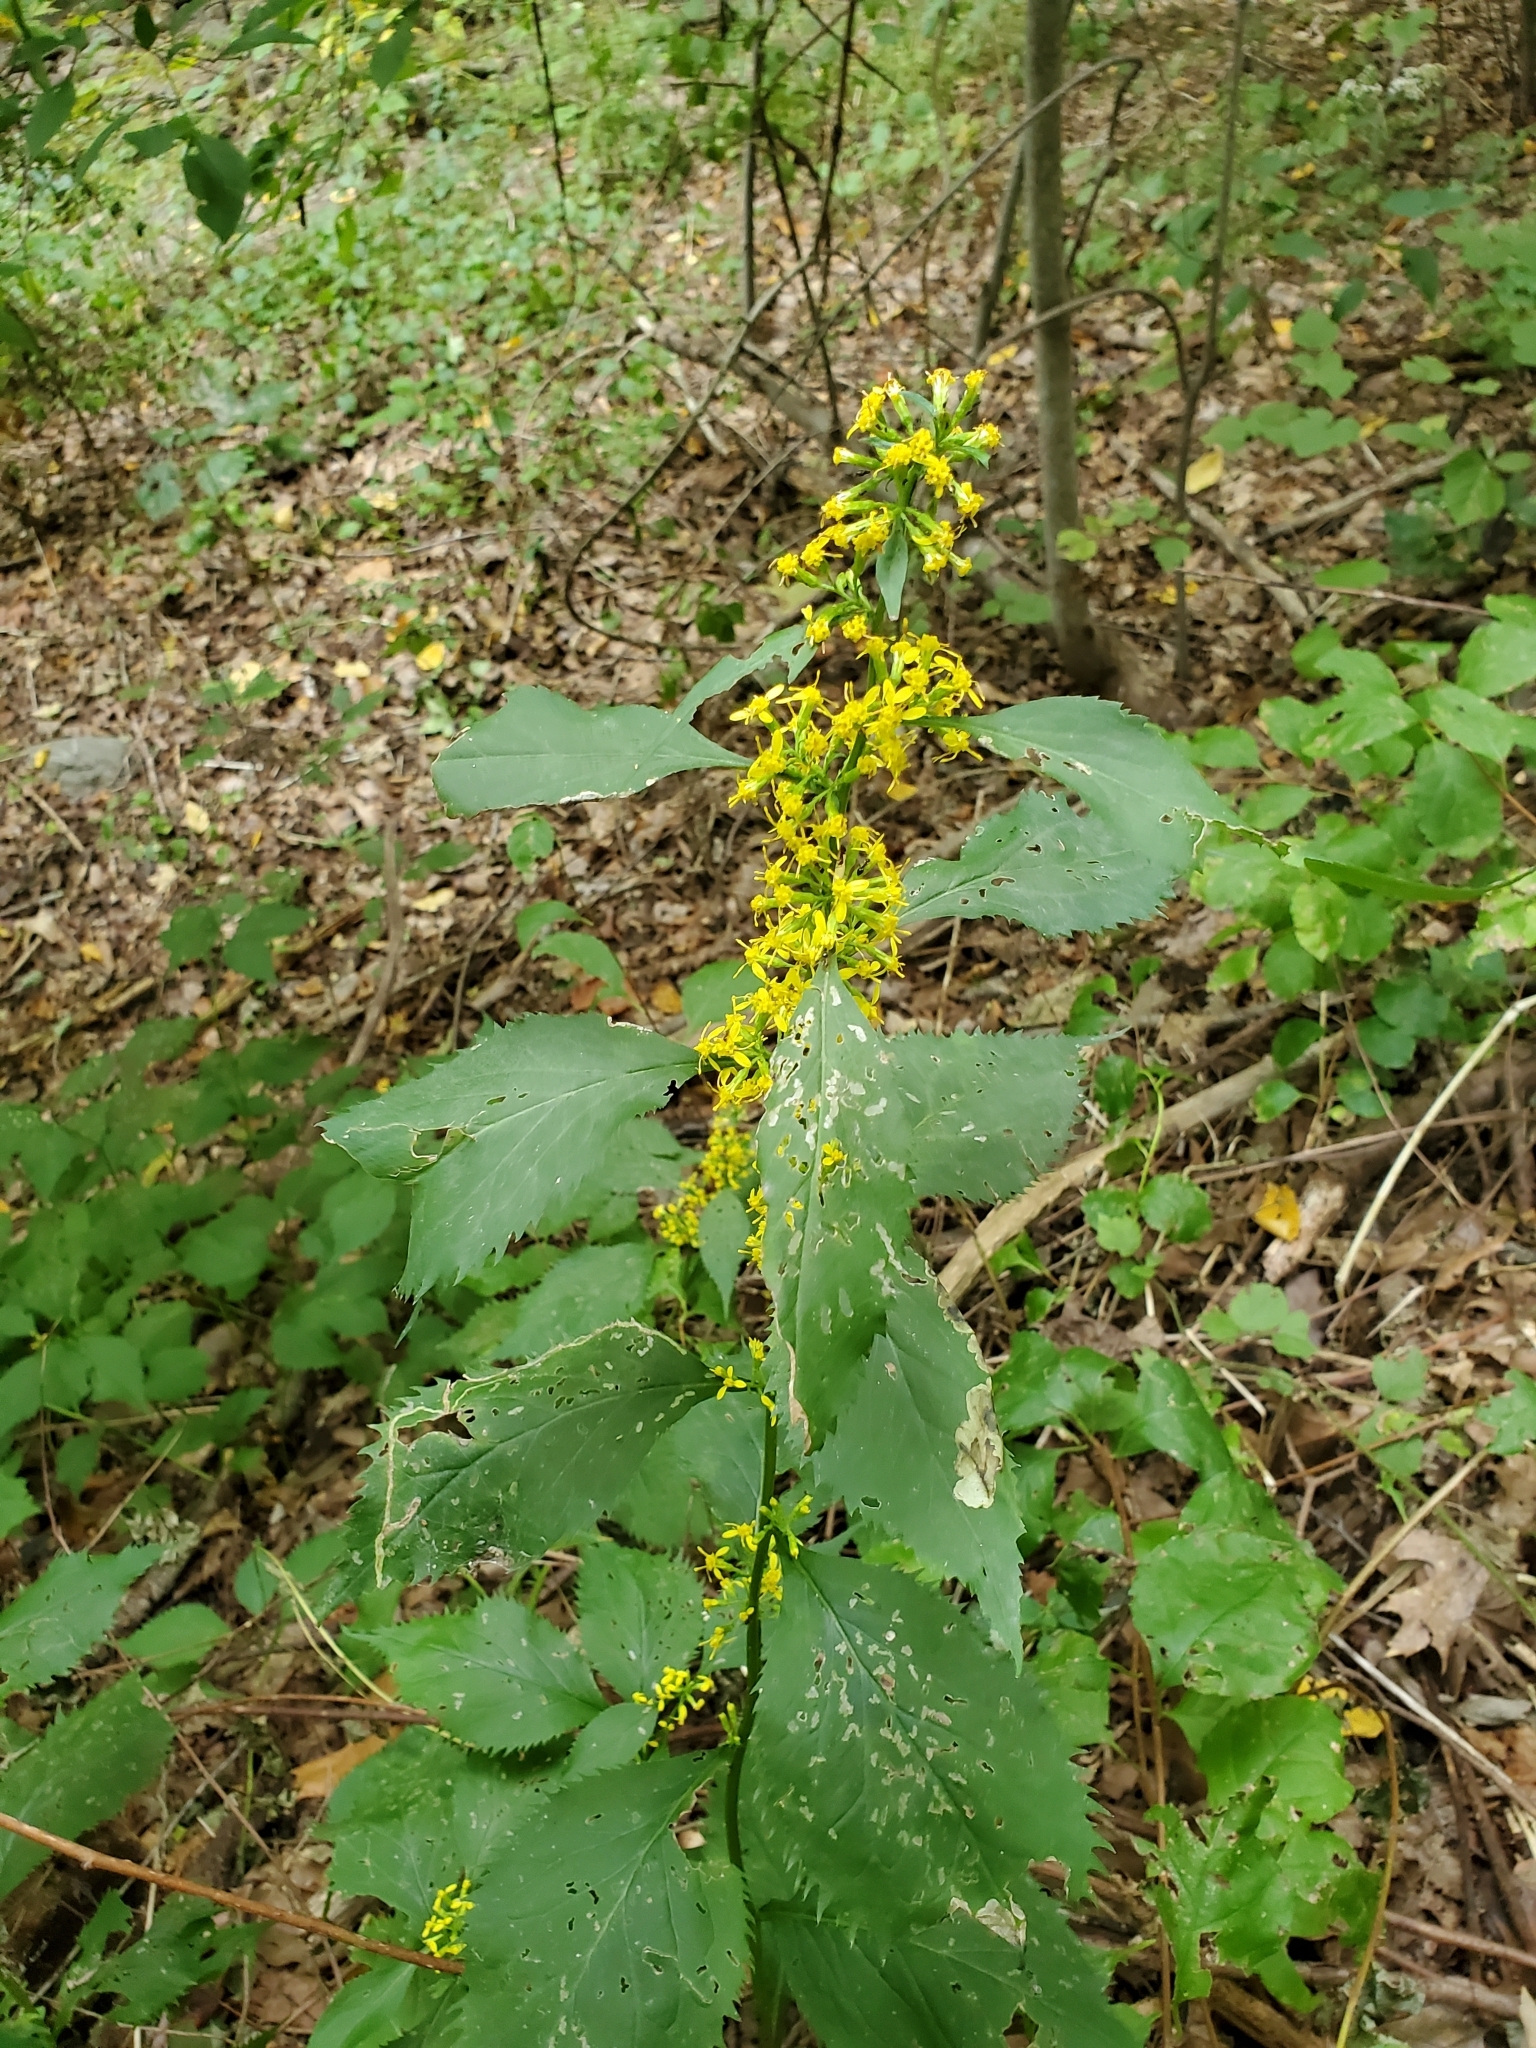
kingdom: Plantae
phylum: Tracheophyta
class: Magnoliopsida
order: Asterales
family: Asteraceae
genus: Solidago
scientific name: Solidago flexicaulis
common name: Zig-zag goldenrod
